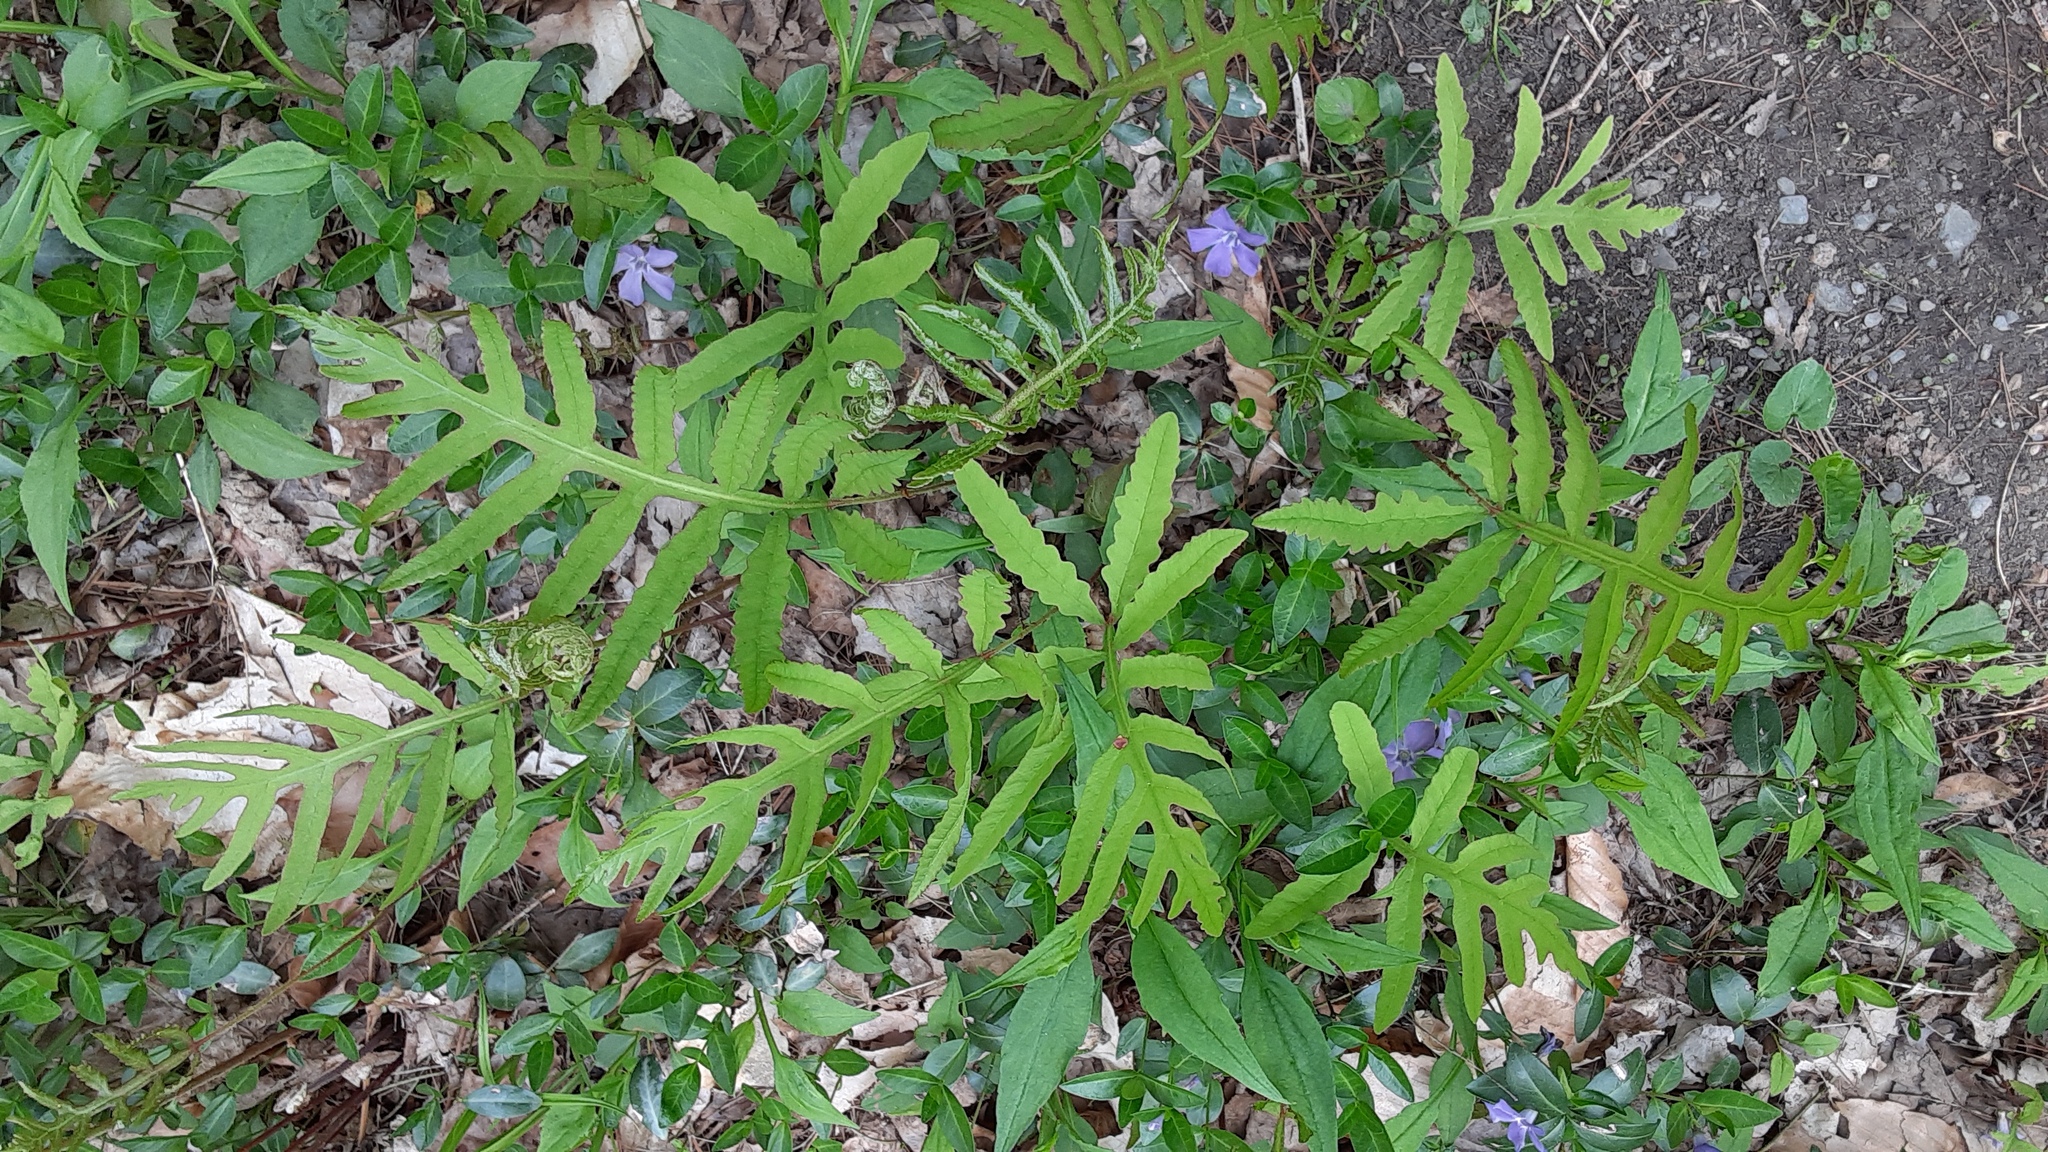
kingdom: Plantae
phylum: Tracheophyta
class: Polypodiopsida
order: Polypodiales
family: Onocleaceae
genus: Onoclea
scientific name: Onoclea sensibilis
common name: Sensitive fern
